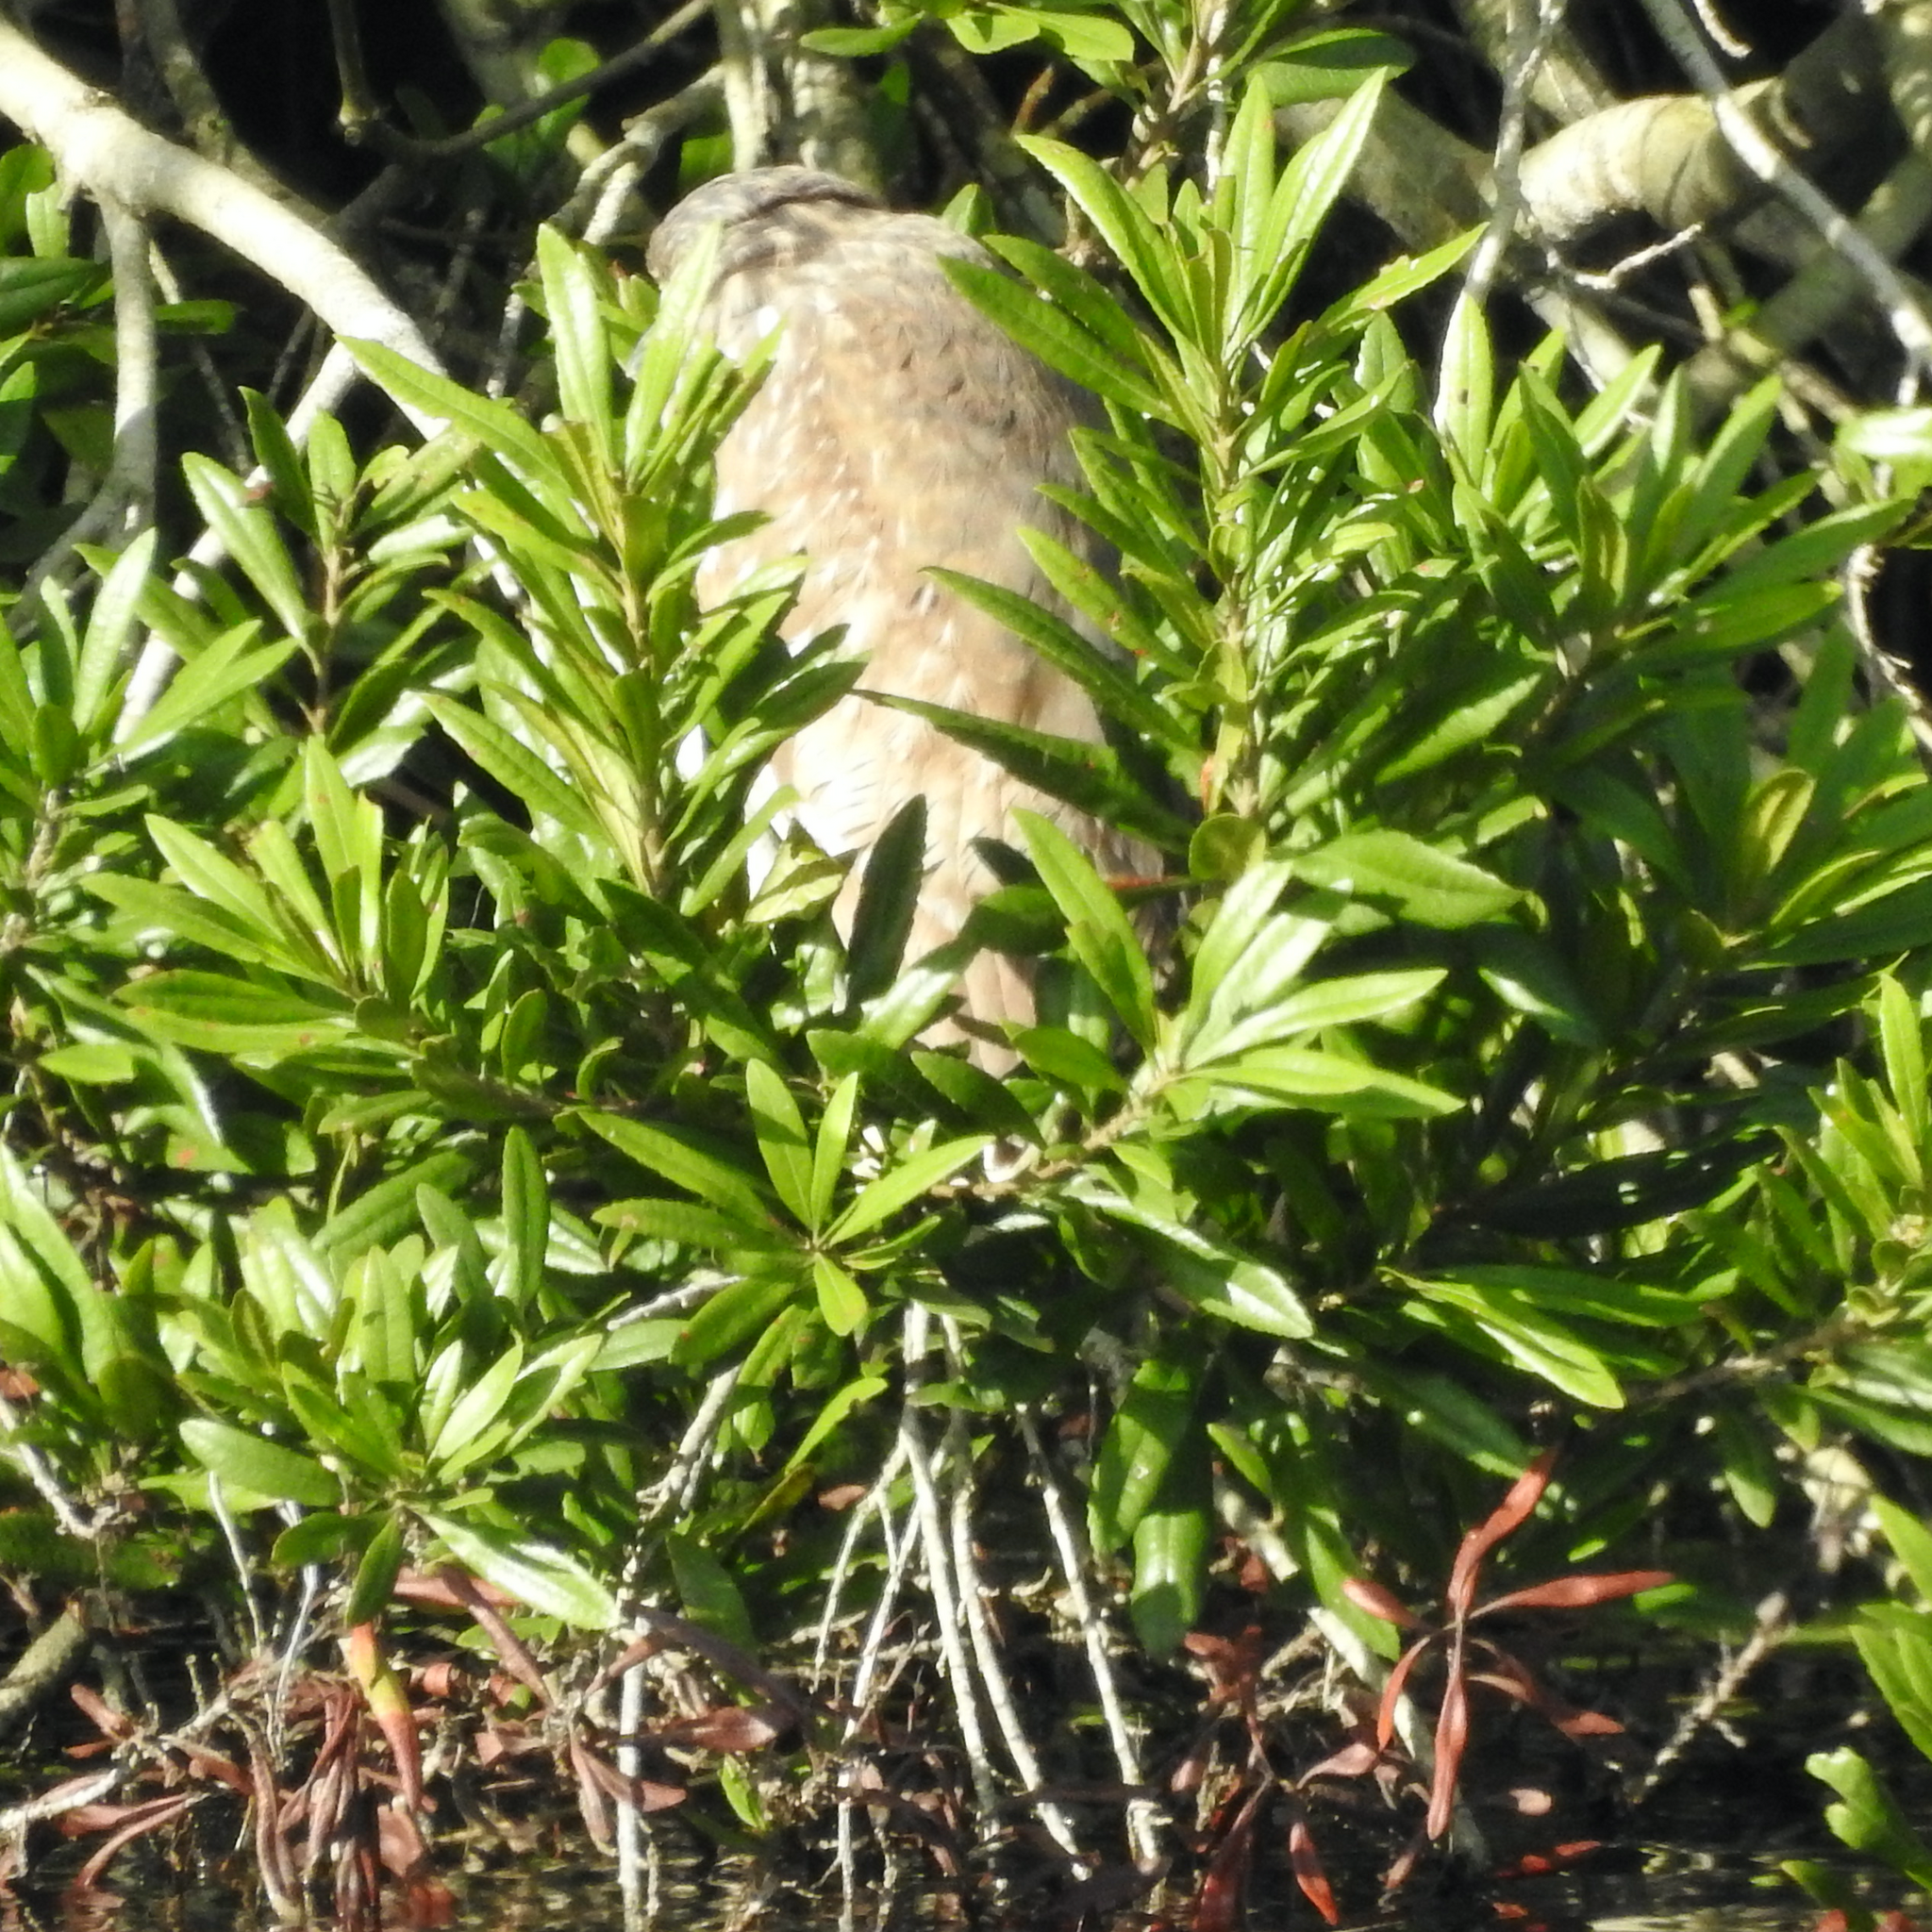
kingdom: Animalia
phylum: Chordata
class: Aves
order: Pelecaniformes
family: Ardeidae
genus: Nycticorax
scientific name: Nycticorax nycticorax
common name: Black-crowned night heron
